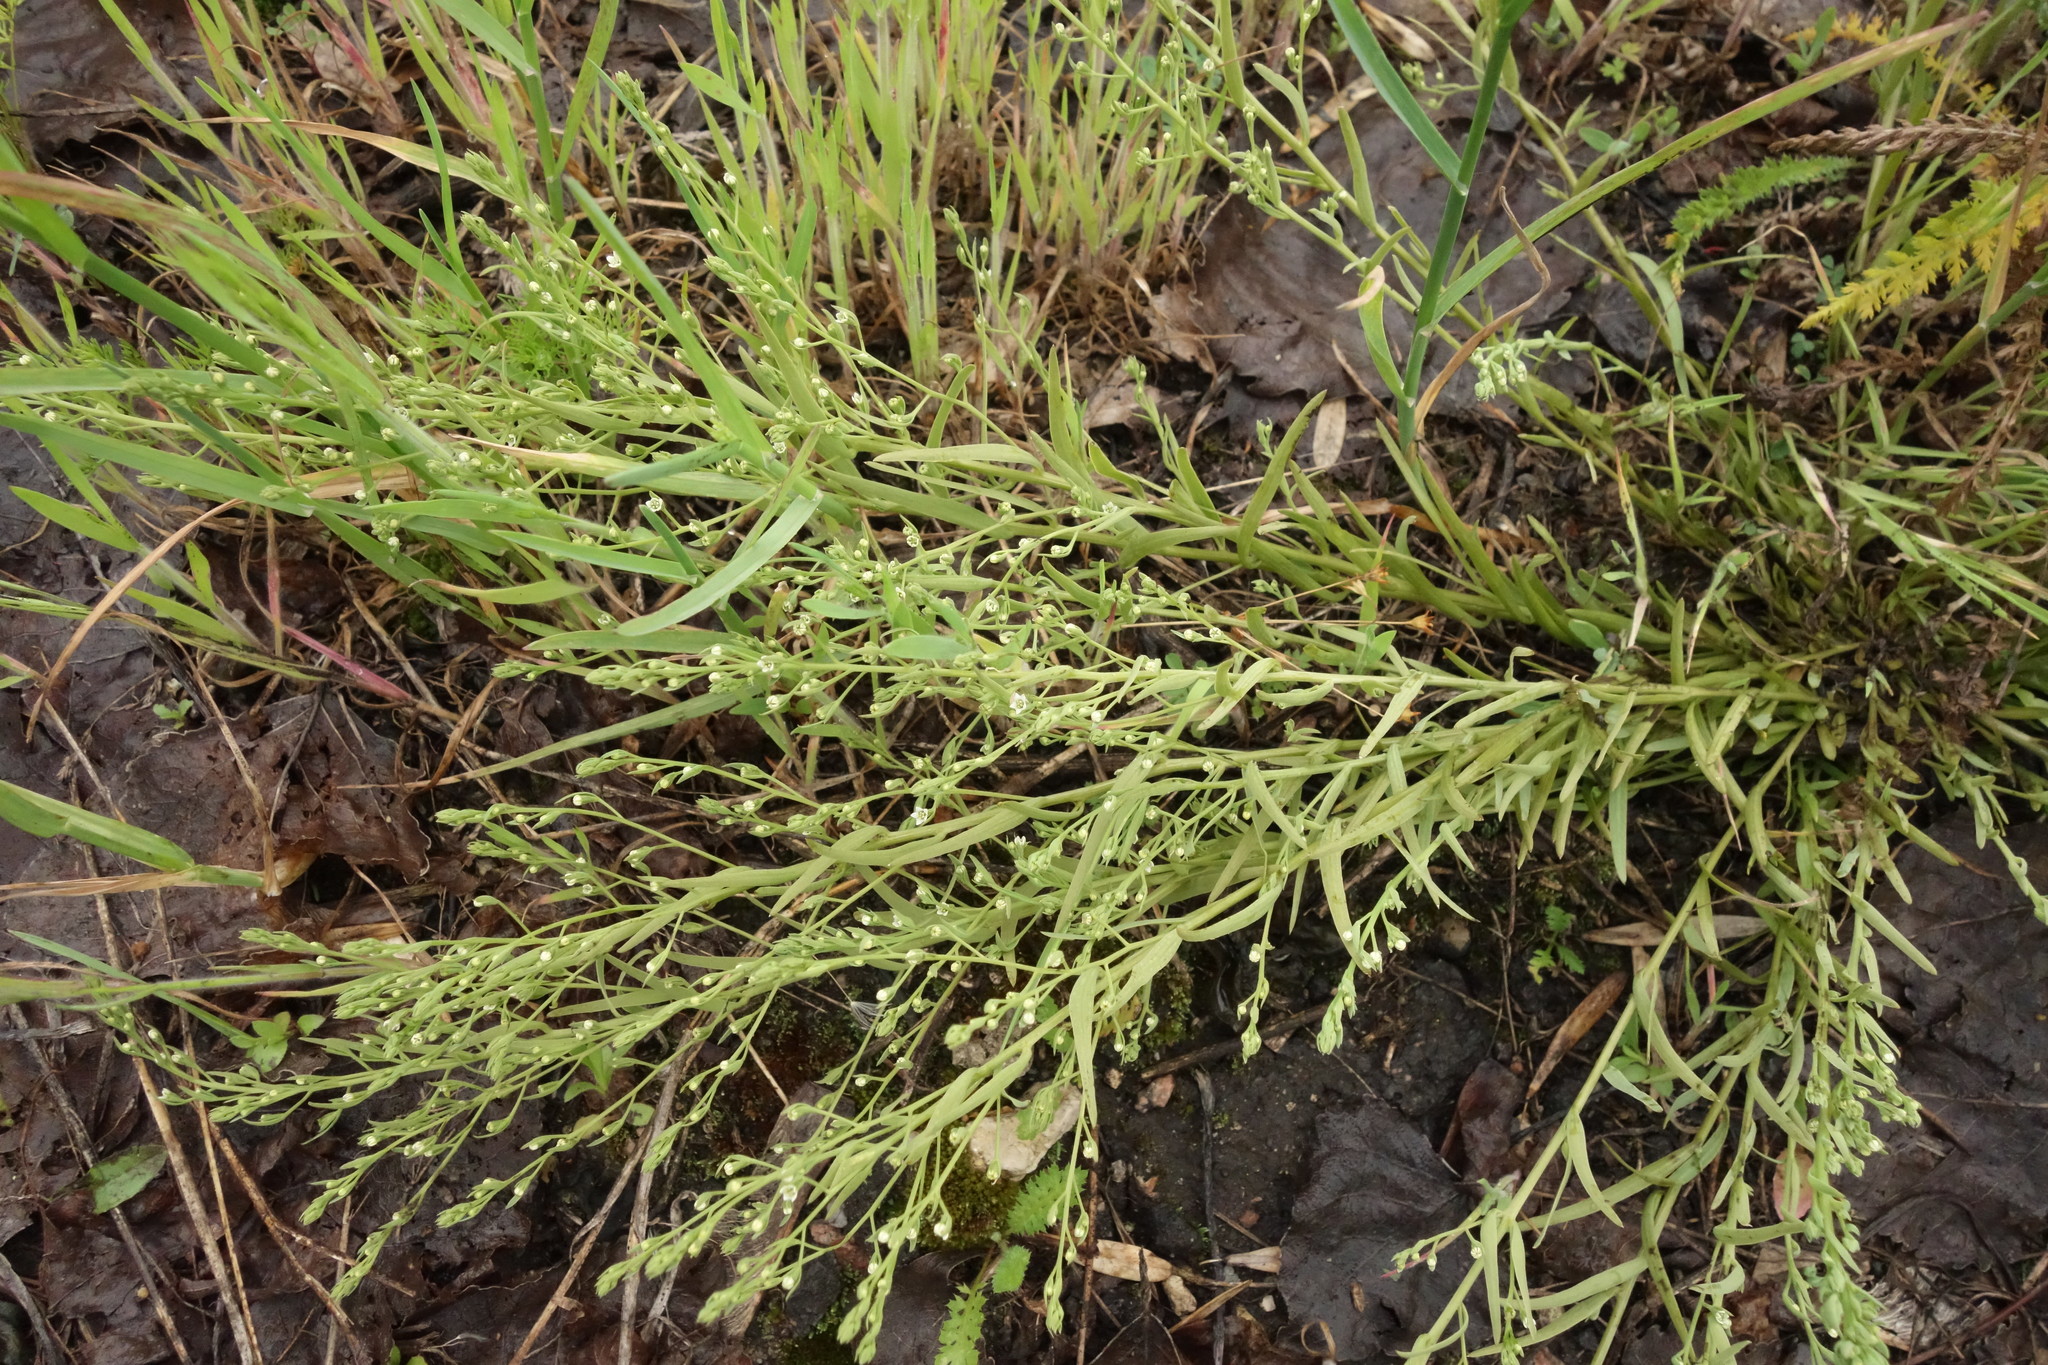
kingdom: Plantae
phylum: Tracheophyta
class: Magnoliopsida
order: Santalales
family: Thesiaceae
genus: Thesium
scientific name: Thesium ramosum
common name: Field thesium
